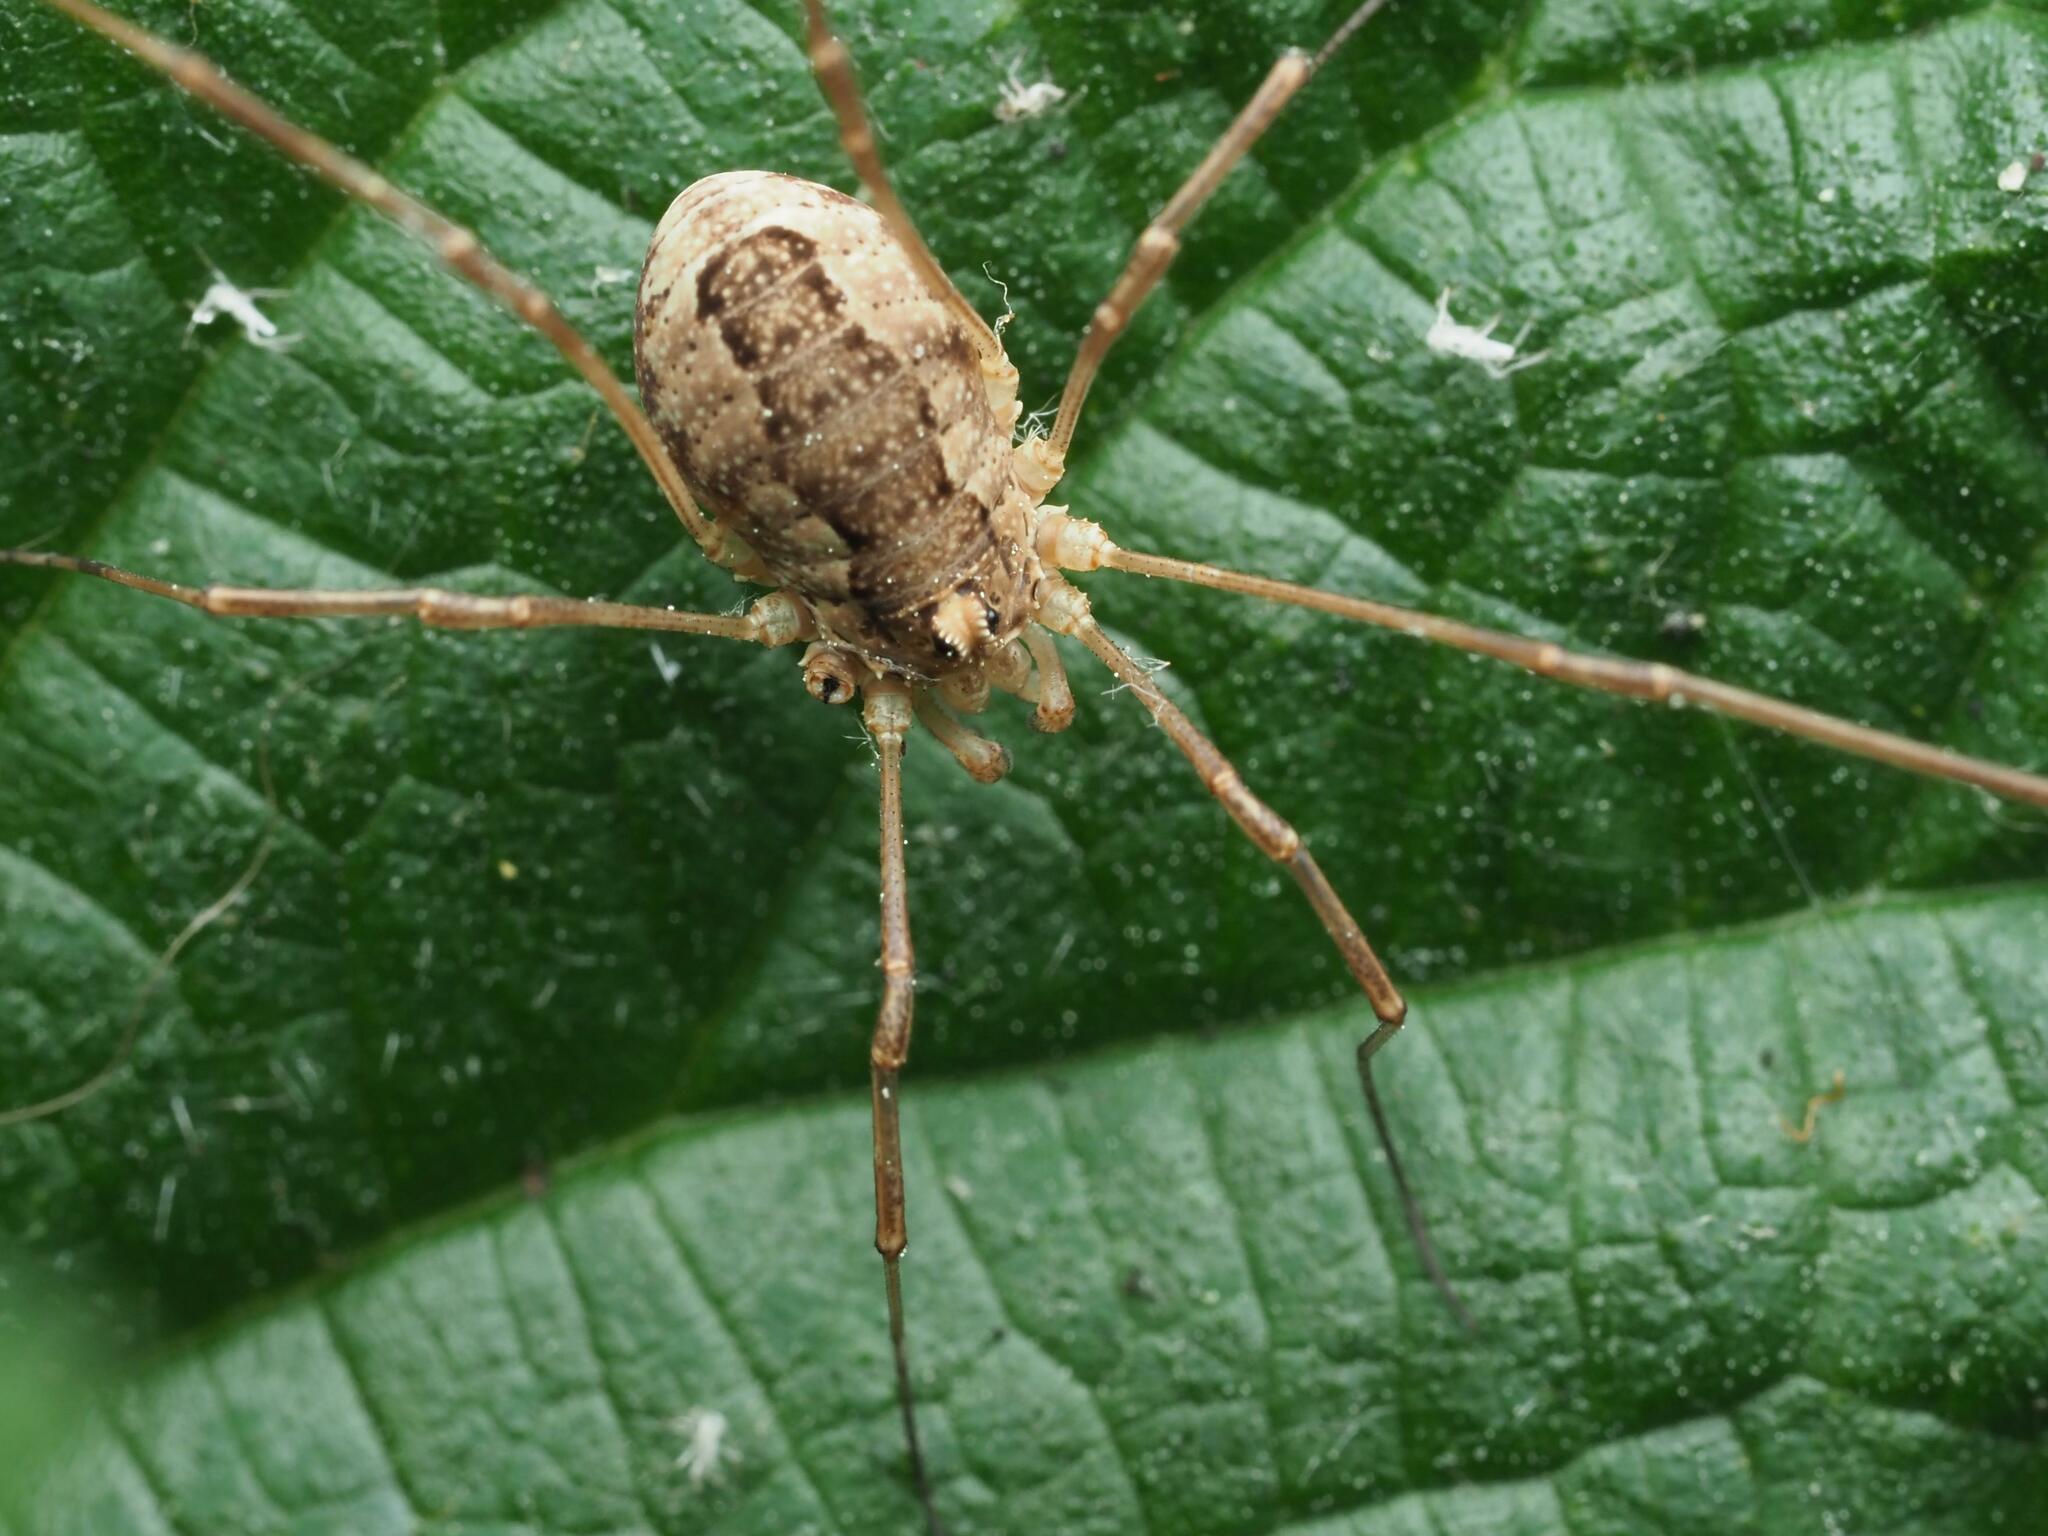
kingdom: Animalia
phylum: Arthropoda
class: Arachnida
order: Opiliones
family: Phalangiidae
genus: Rilaena
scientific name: Rilaena triangularis
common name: Spring harvestman
